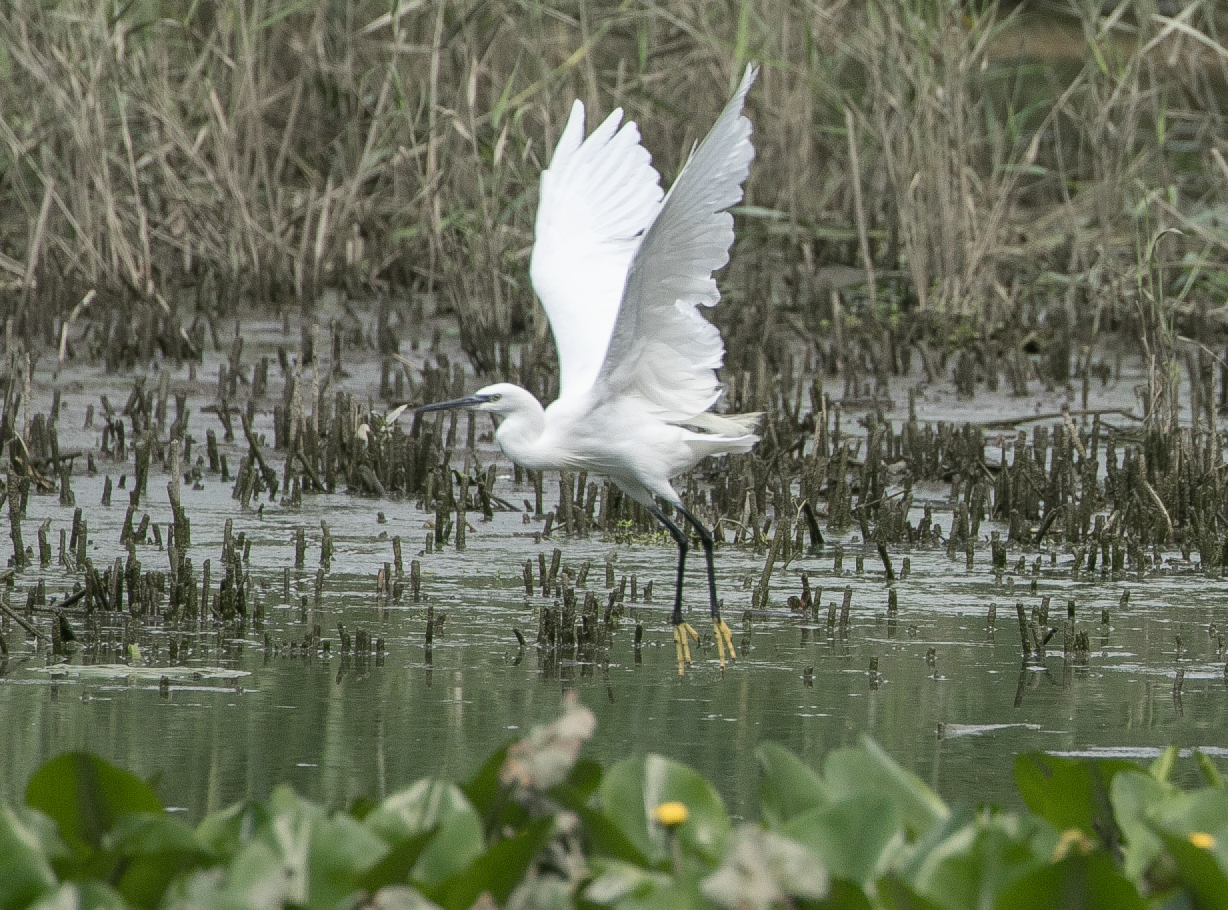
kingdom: Animalia
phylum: Chordata
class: Aves
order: Pelecaniformes
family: Ardeidae
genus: Egretta
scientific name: Egretta garzetta
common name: Little egret
